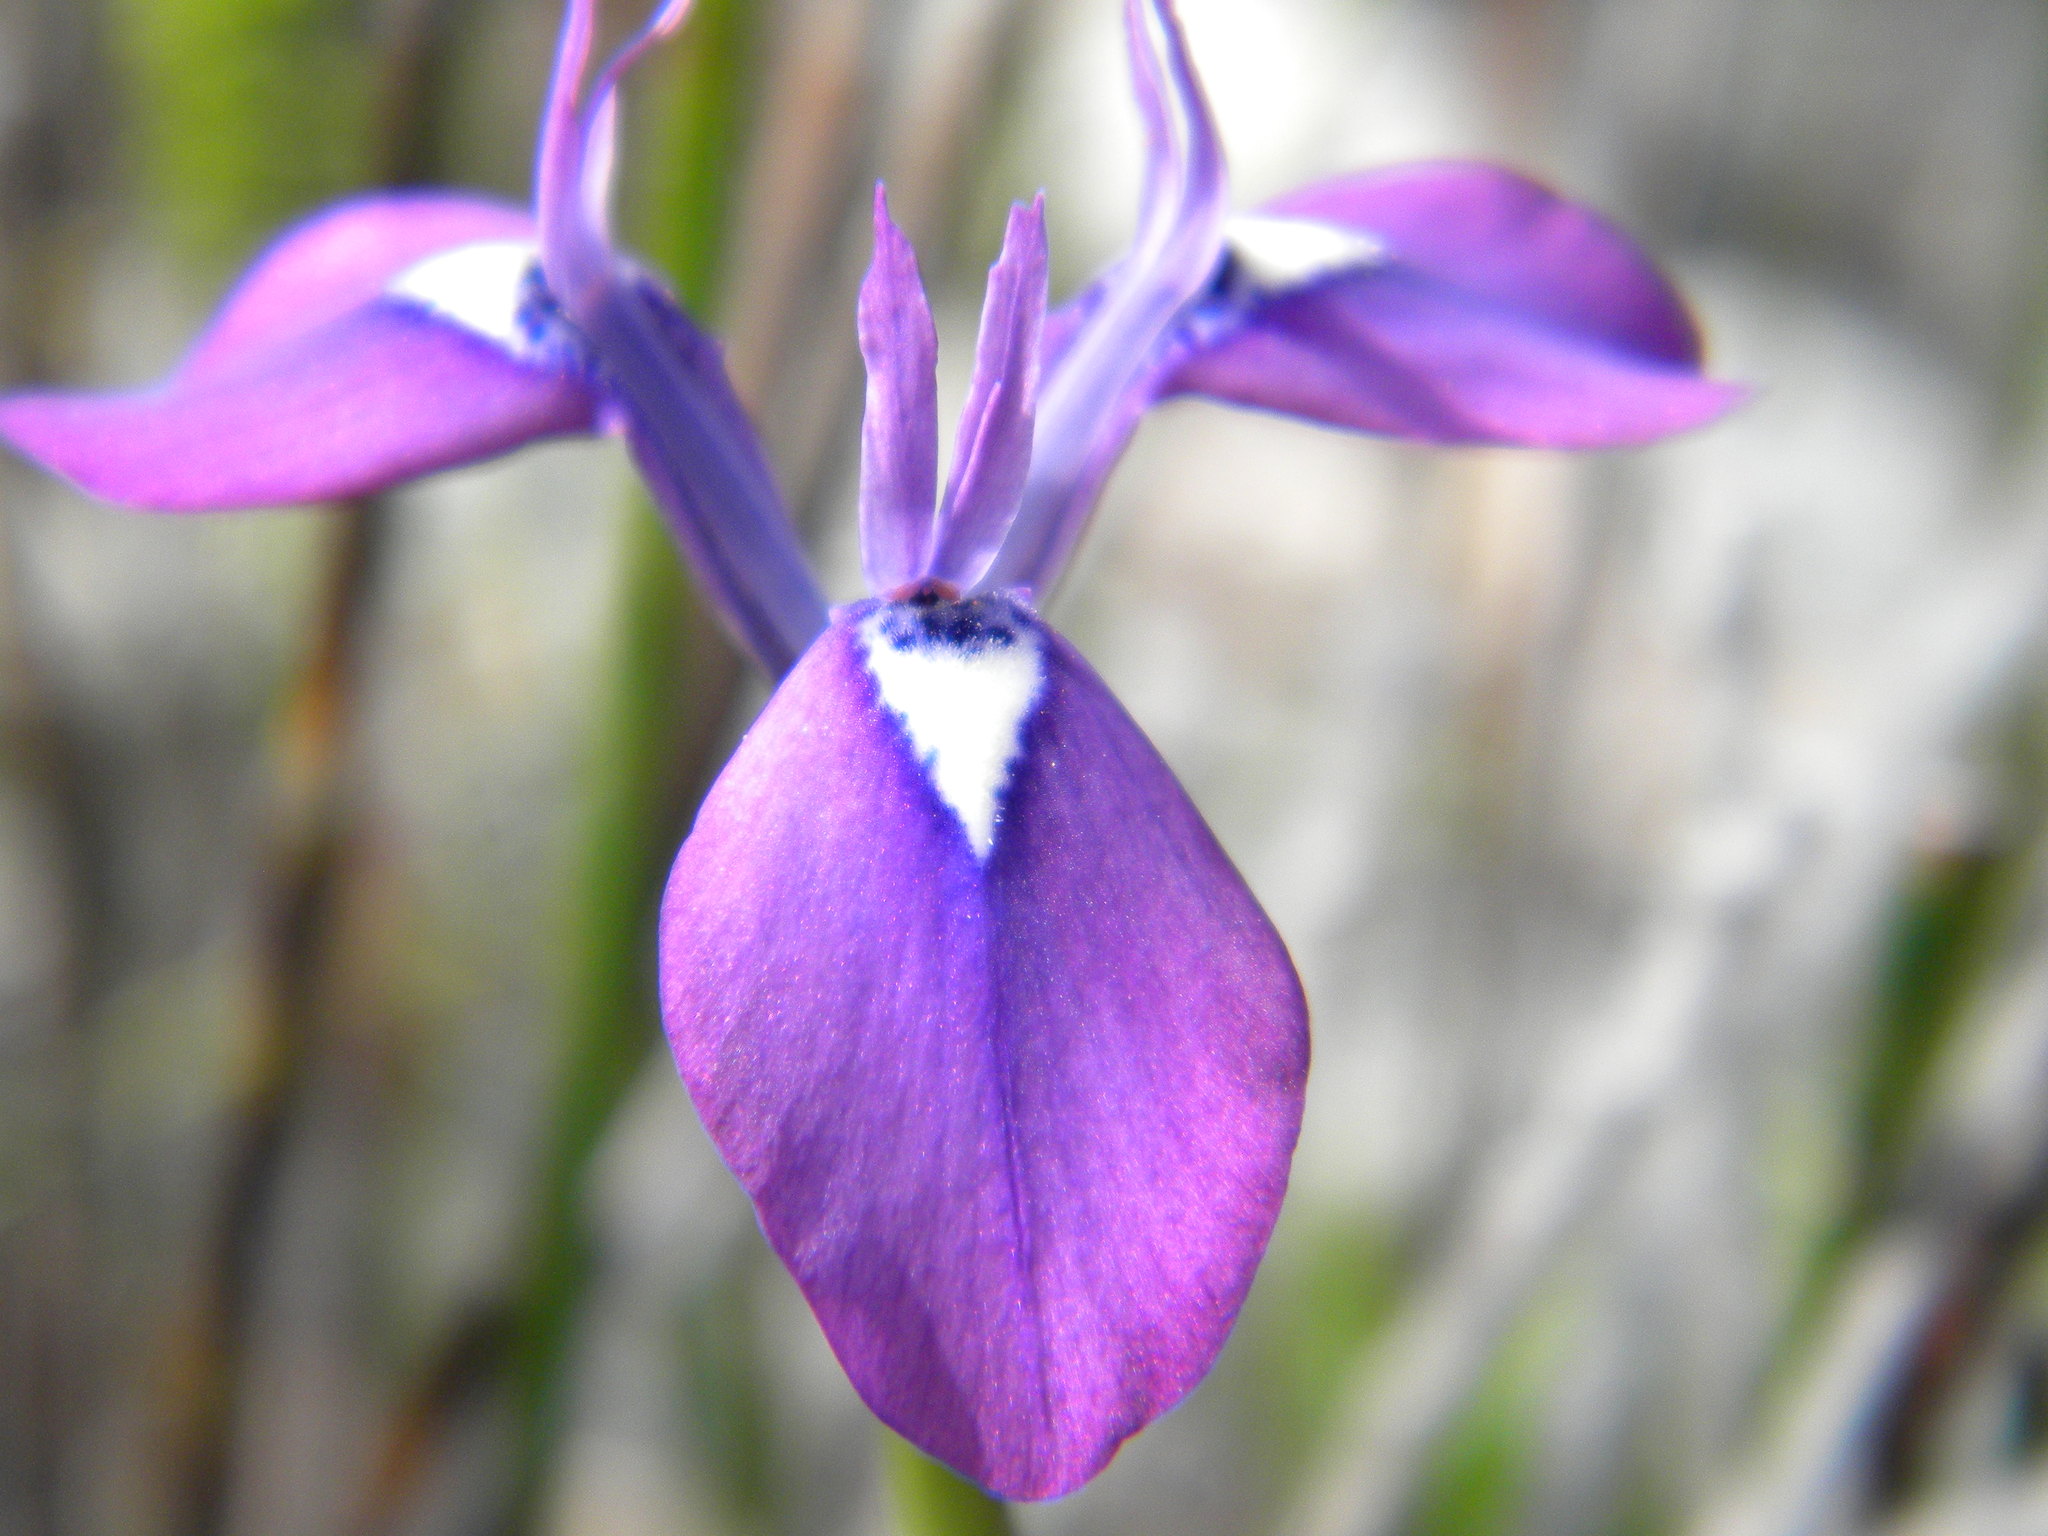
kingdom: Plantae
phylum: Tracheophyta
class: Liliopsida
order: Asparagales
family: Iridaceae
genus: Moraea
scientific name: Moraea tripetala
